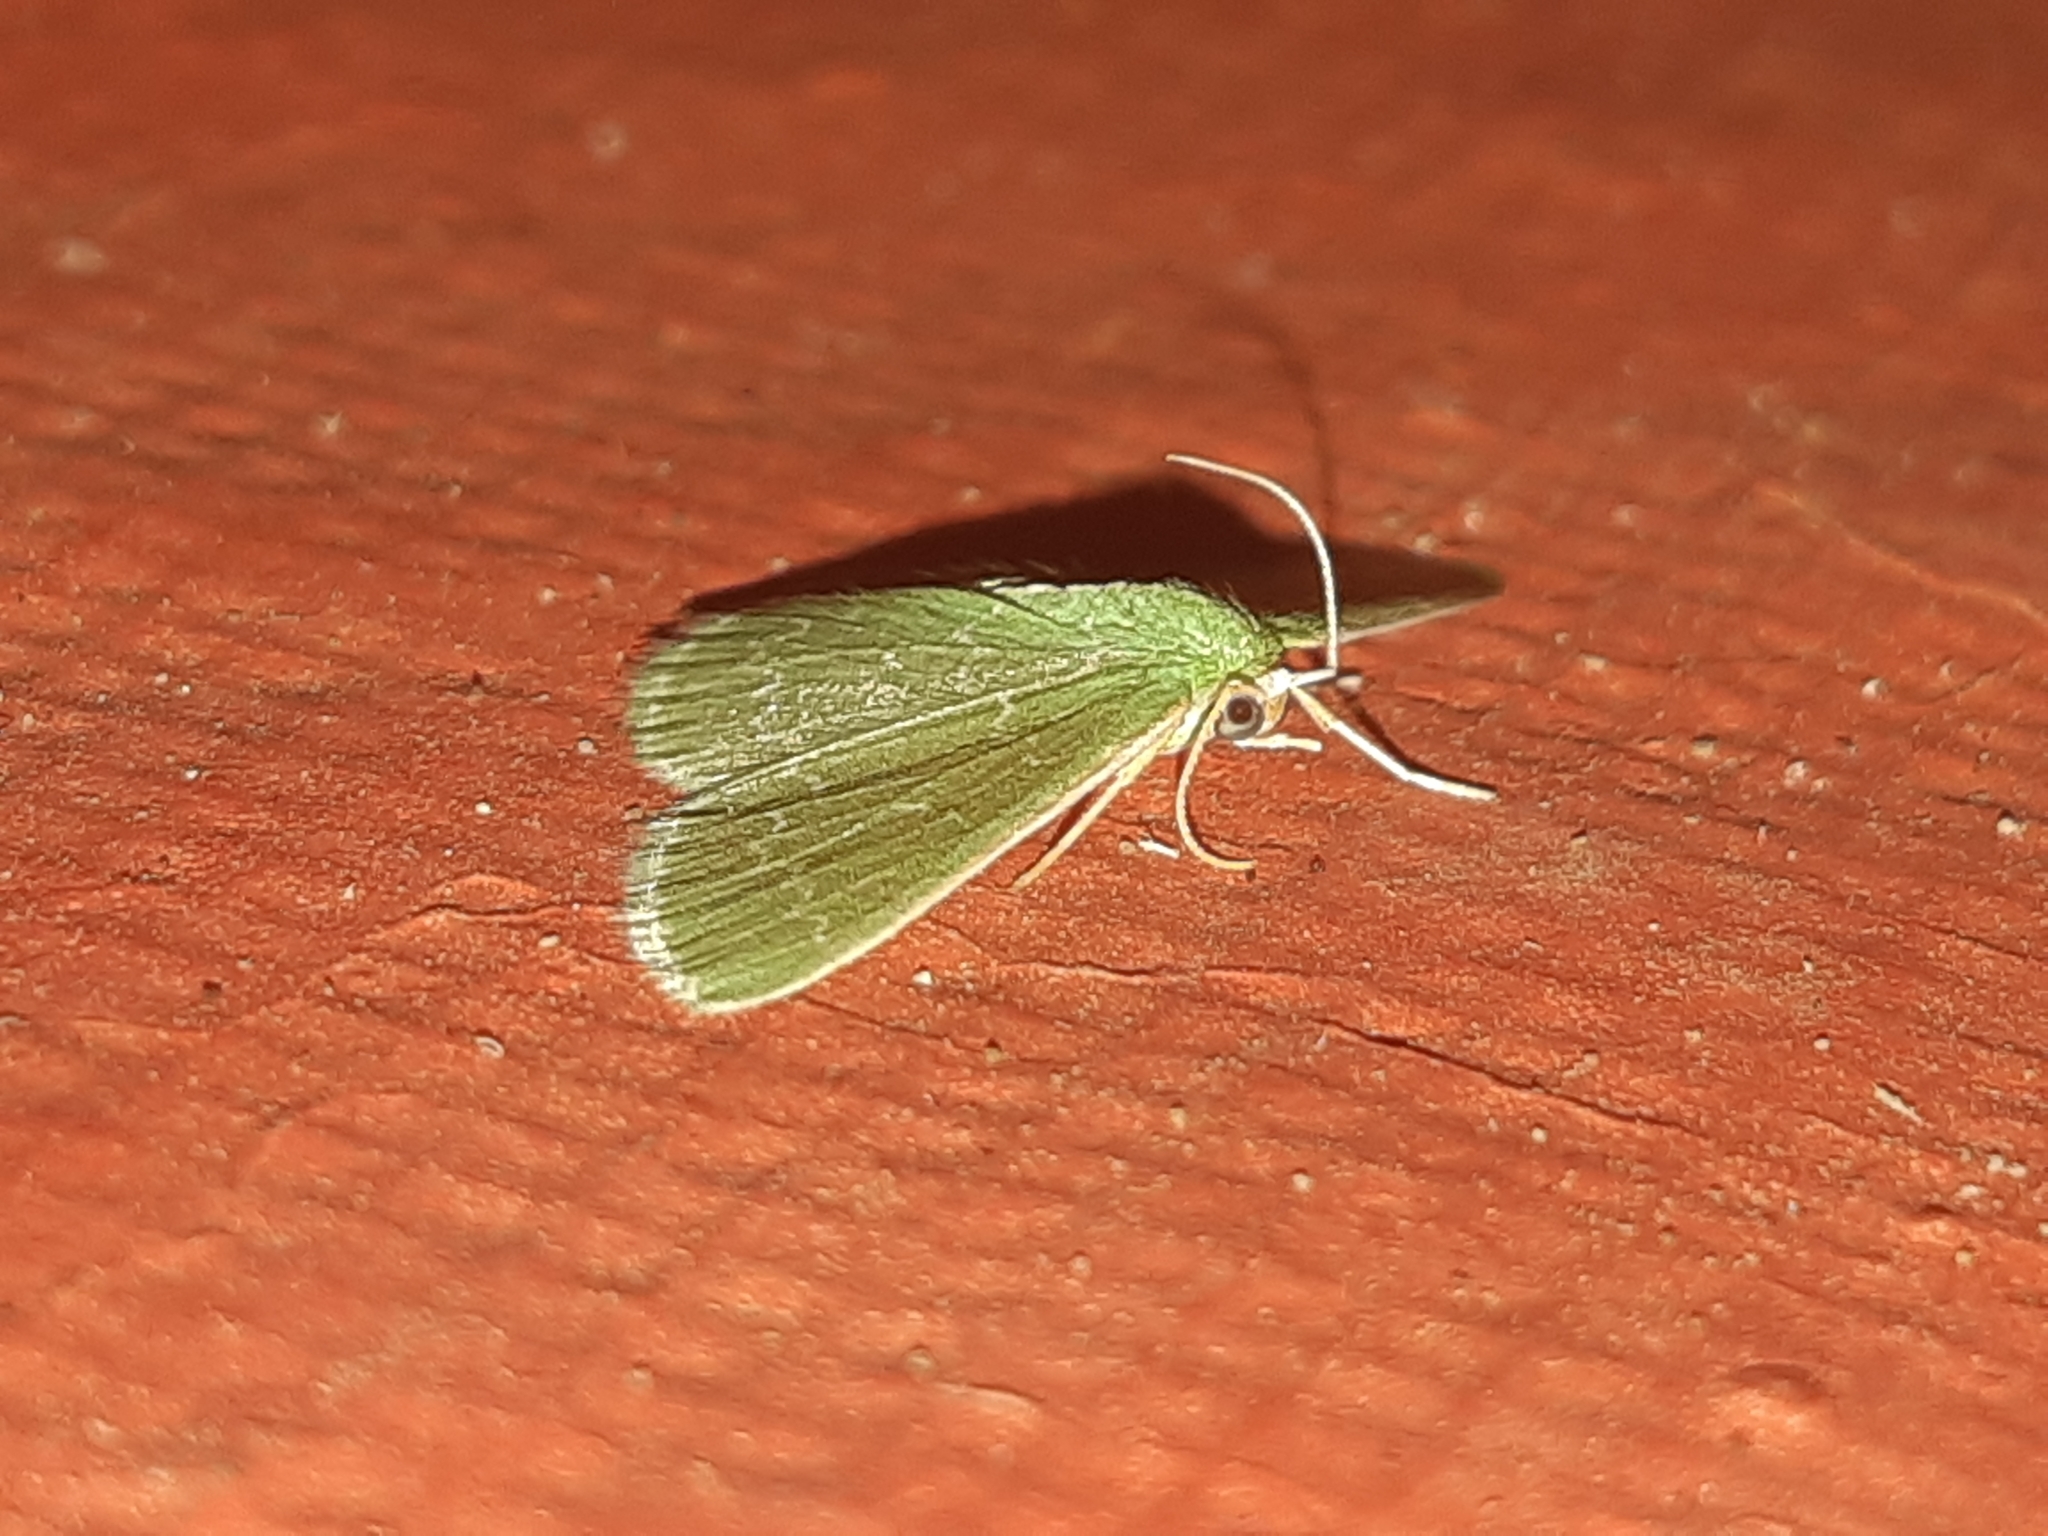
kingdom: Animalia
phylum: Arthropoda
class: Insecta
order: Lepidoptera
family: Geometridae
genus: Synchlora
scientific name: Synchlora frondaria
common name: Southern emerald
